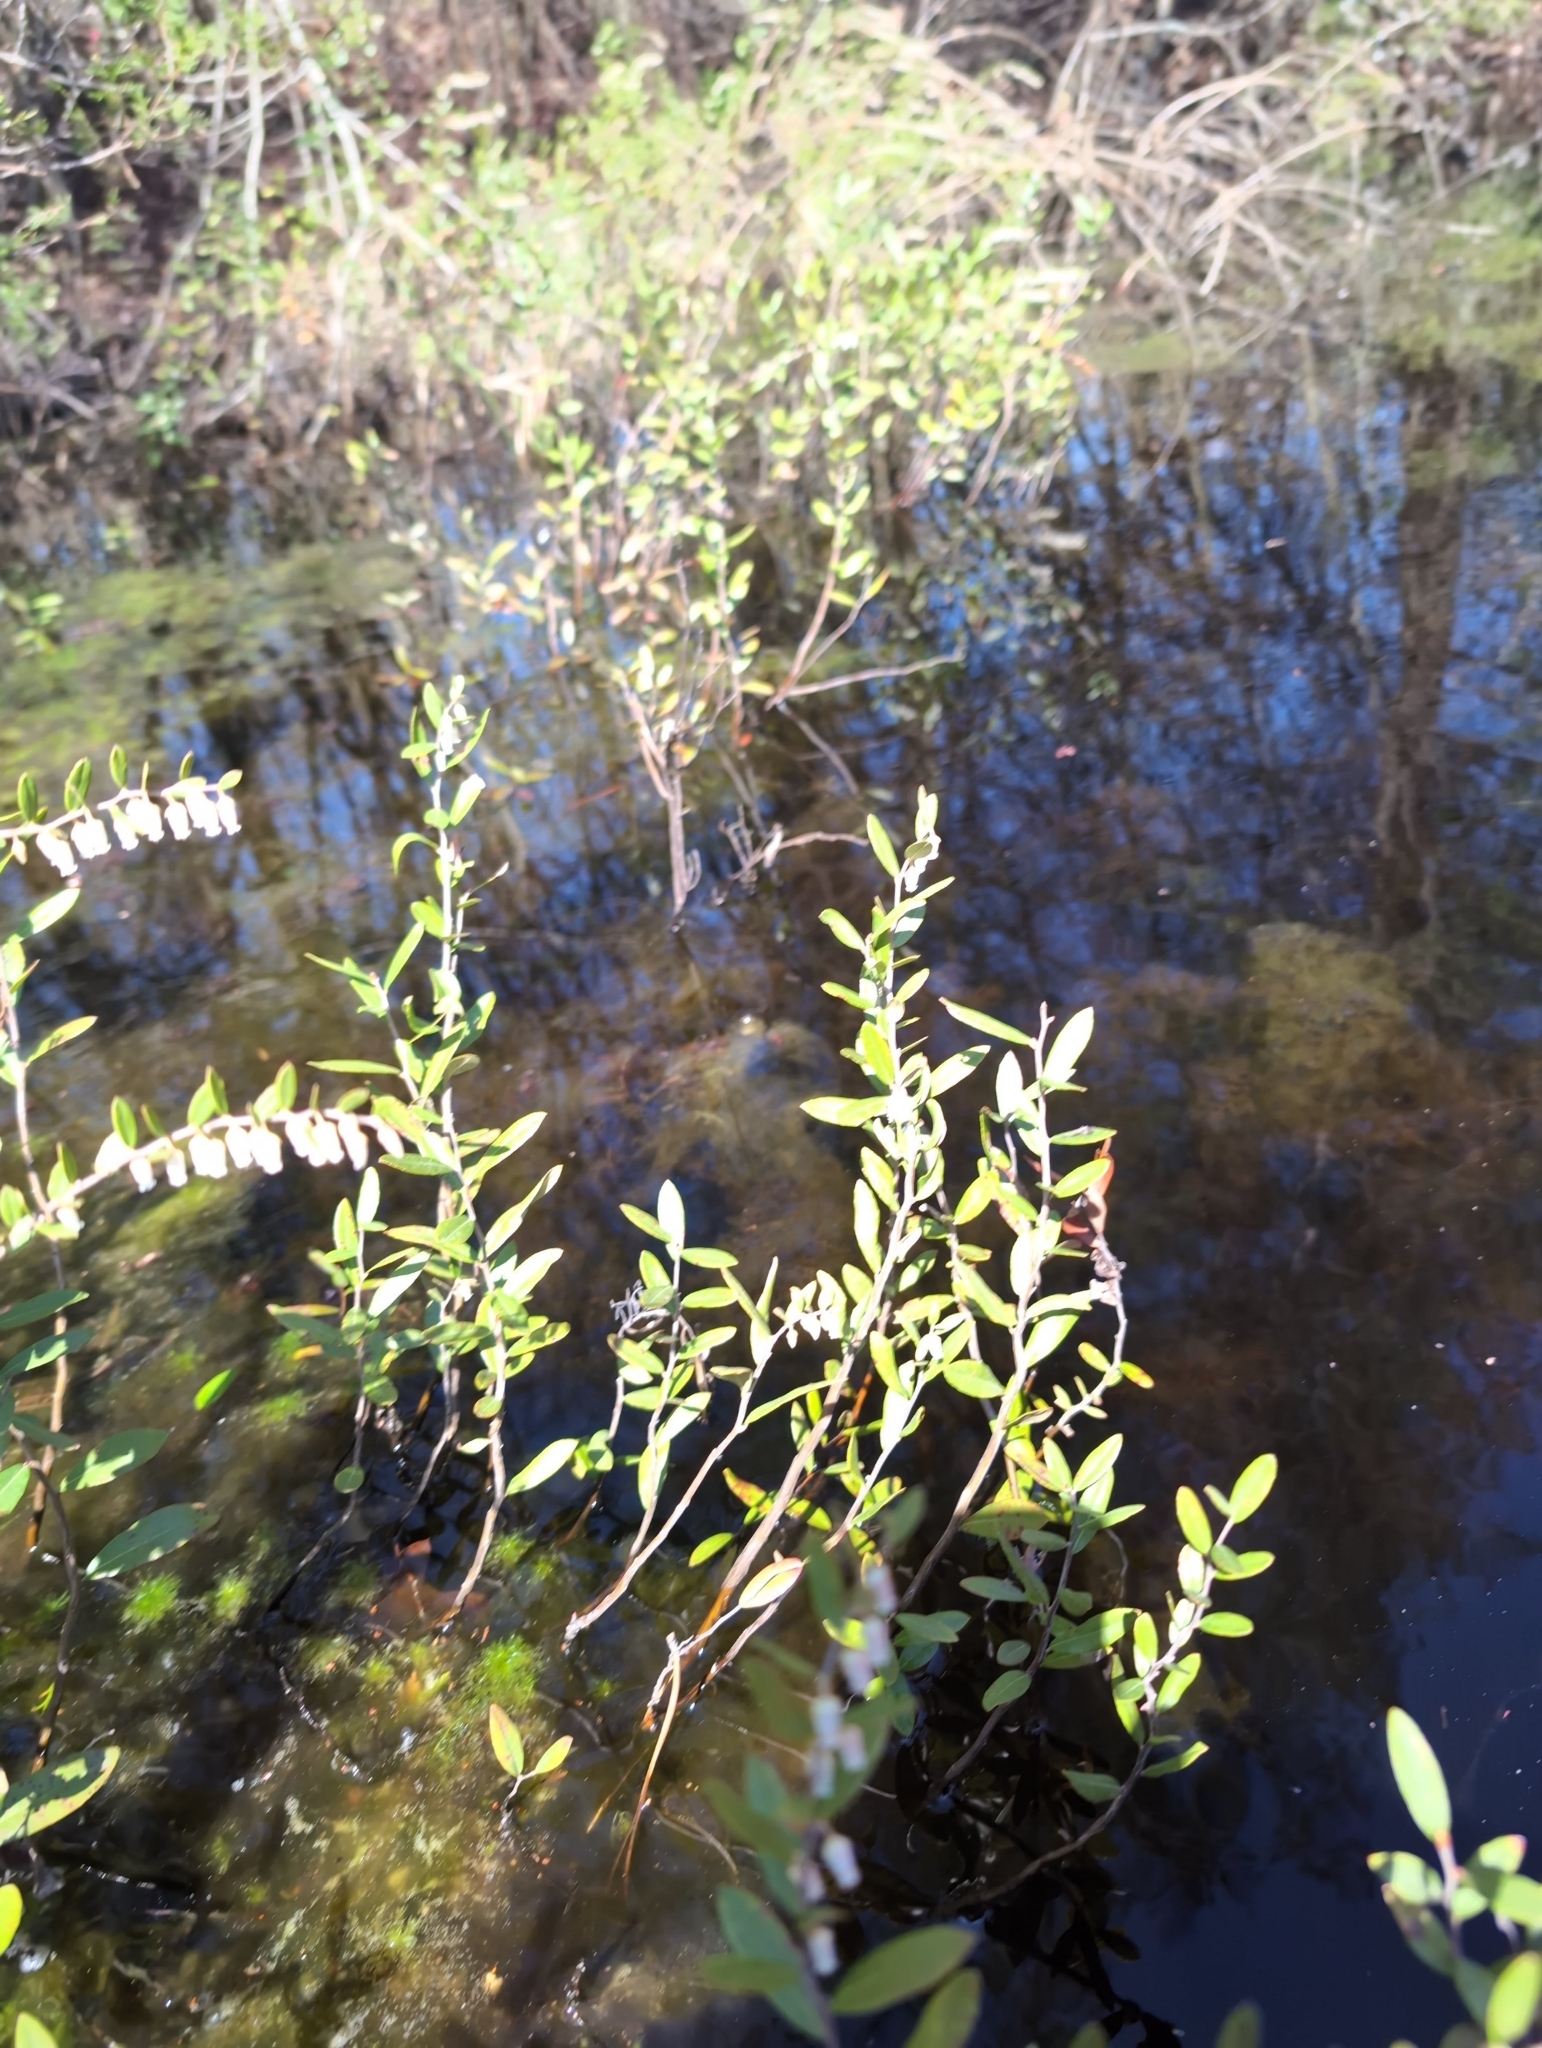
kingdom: Plantae
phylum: Tracheophyta
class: Magnoliopsida
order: Ericales
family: Ericaceae
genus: Chamaedaphne
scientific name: Chamaedaphne calyculata
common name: Leatherleaf
